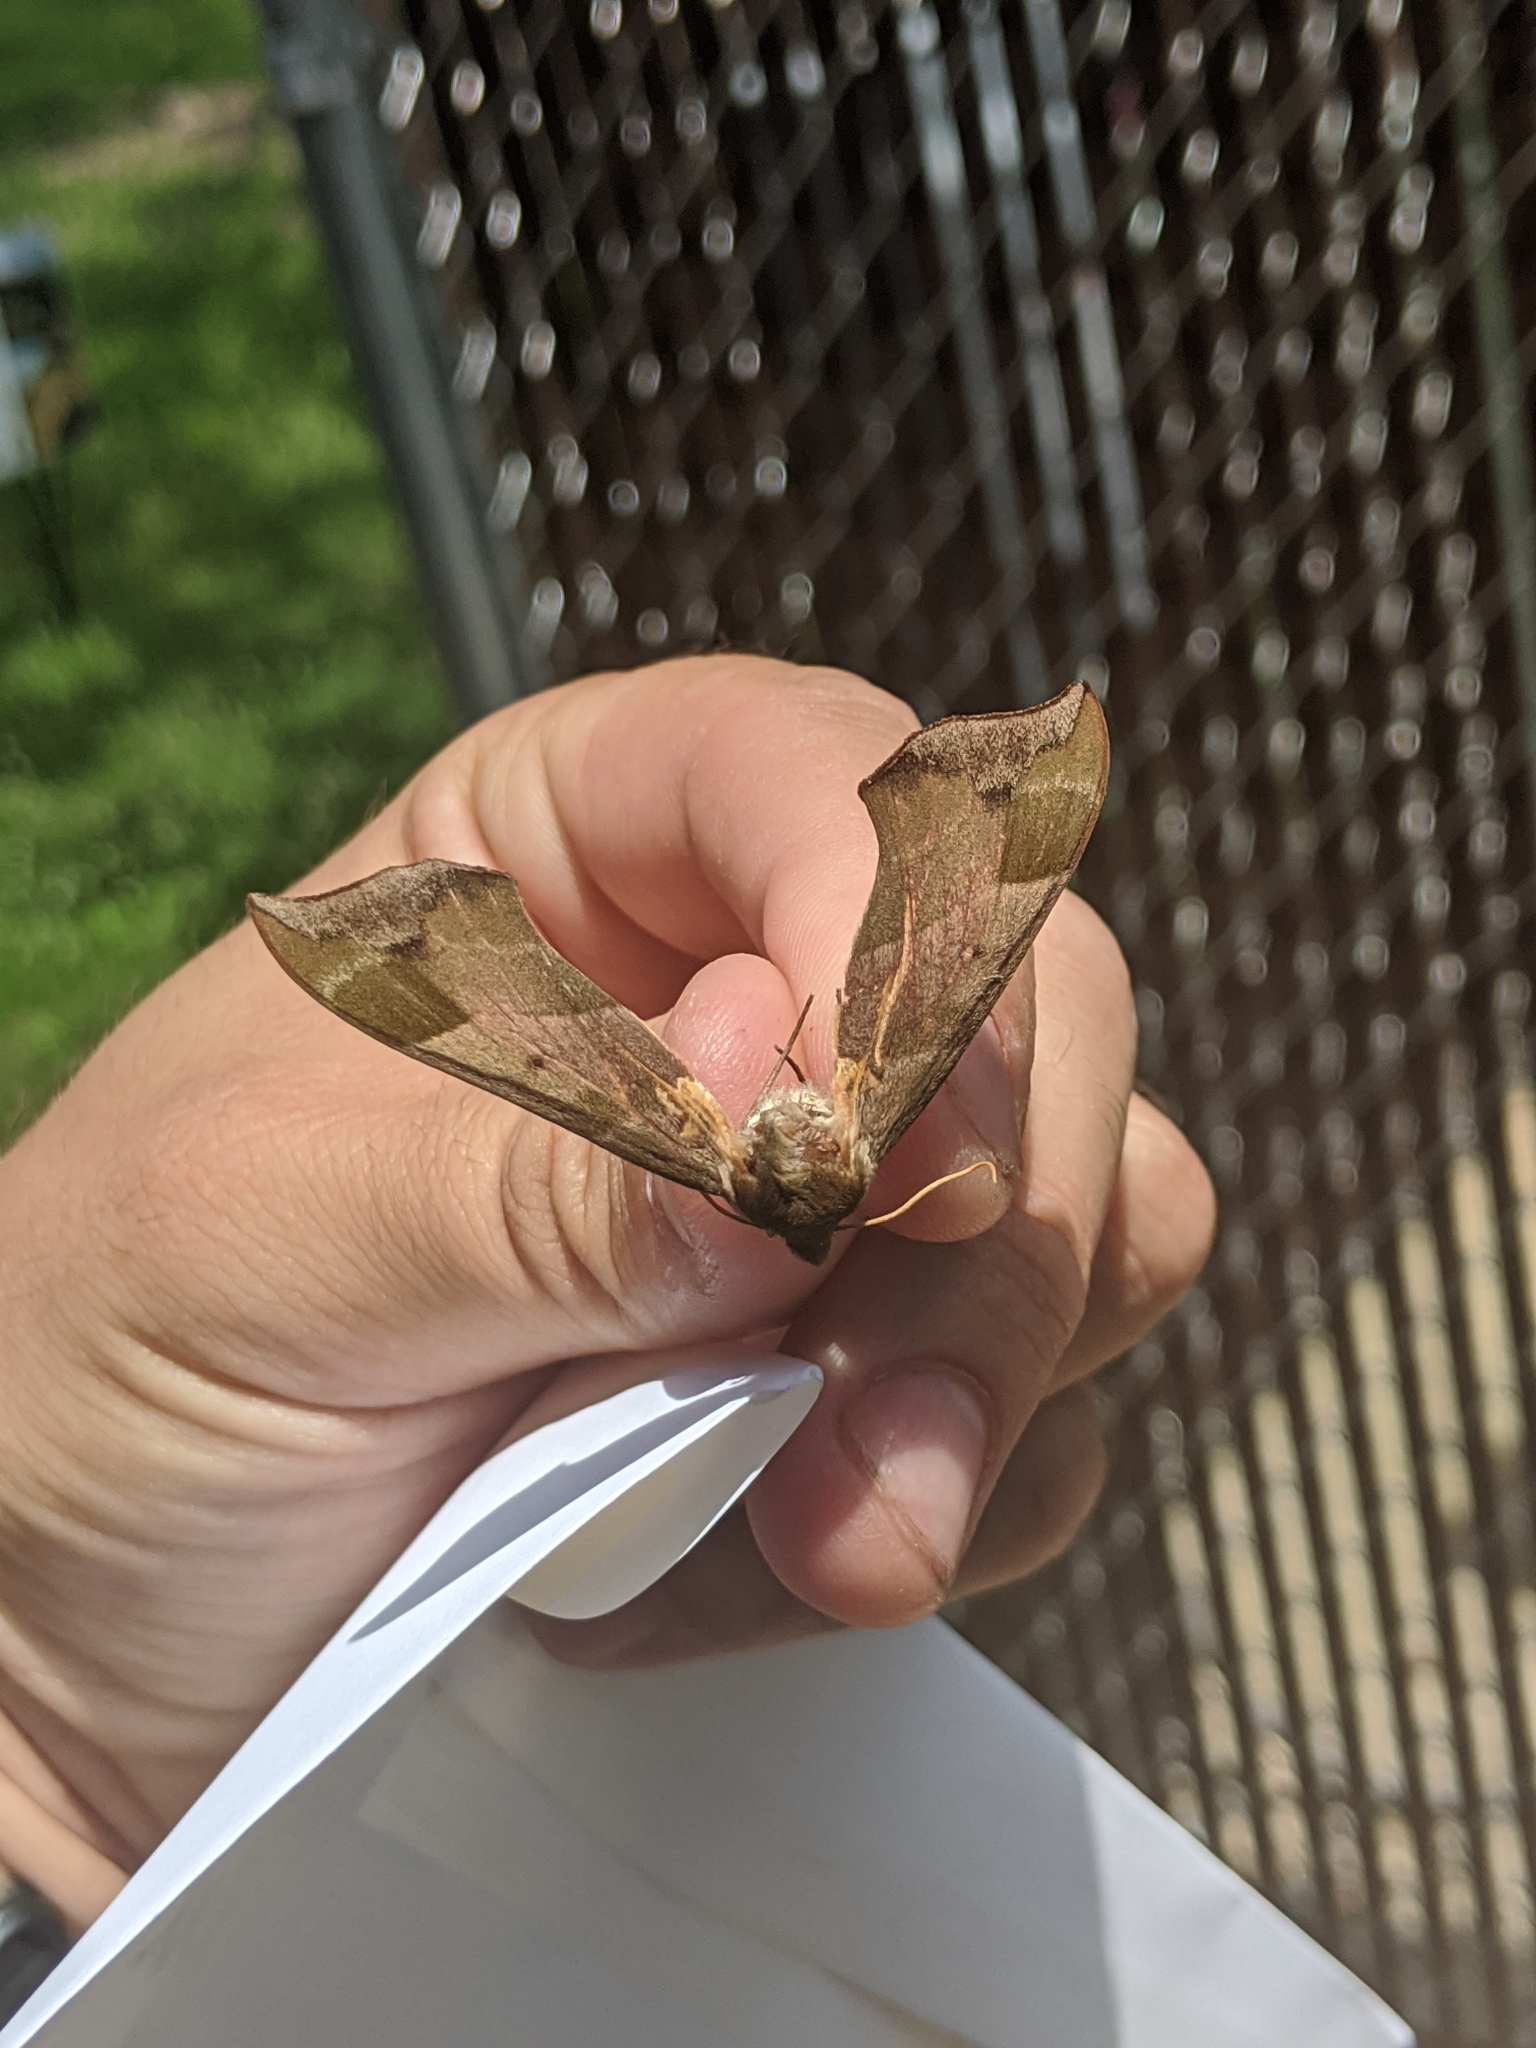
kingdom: Animalia
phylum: Arthropoda
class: Insecta
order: Lepidoptera
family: Sphingidae
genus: Darapsa
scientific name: Darapsa myron
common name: Hog sphinx
